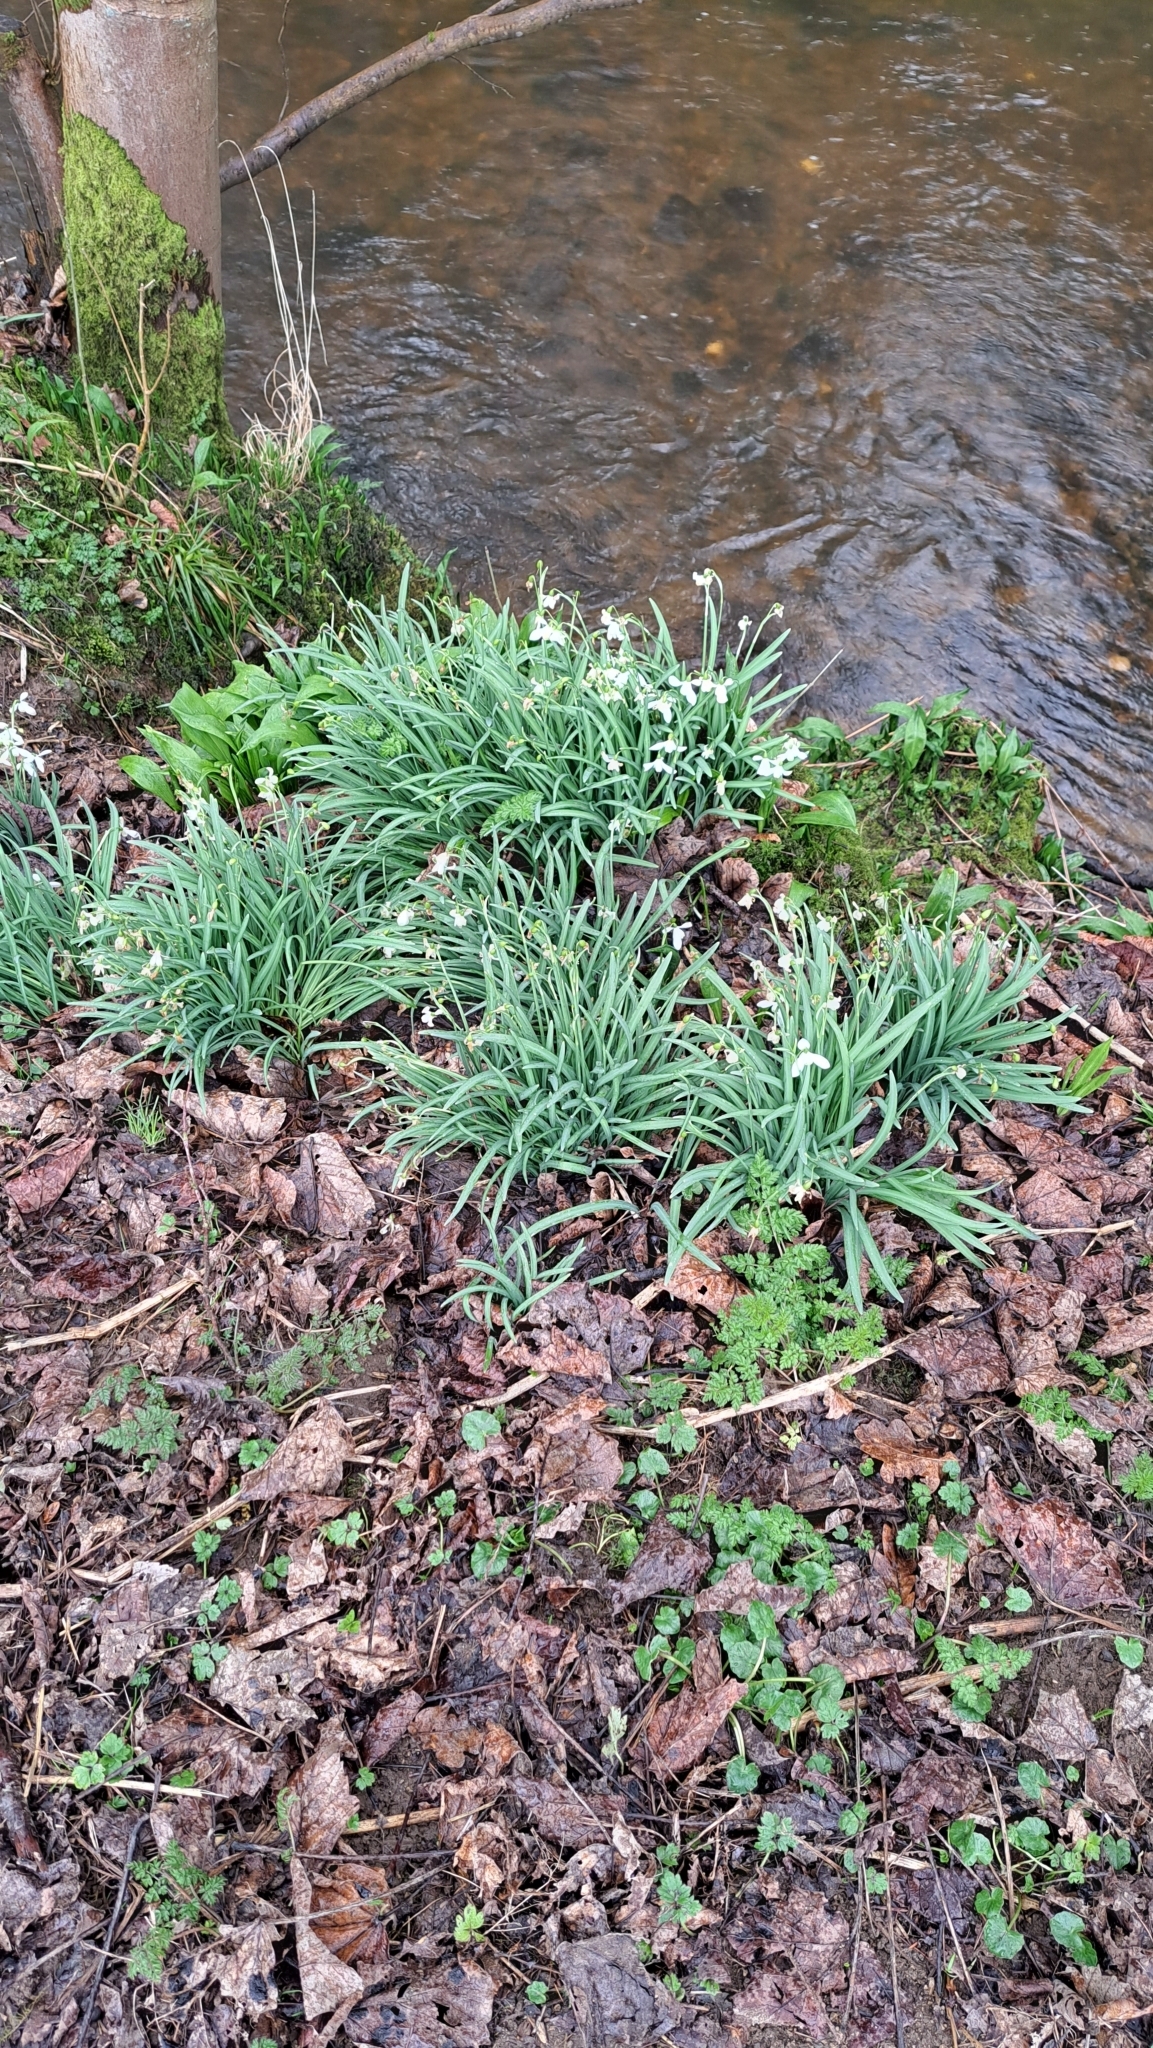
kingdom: Plantae
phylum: Tracheophyta
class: Liliopsida
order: Asparagales
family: Amaryllidaceae
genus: Galanthus
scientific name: Galanthus nivalis
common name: Snowdrop
